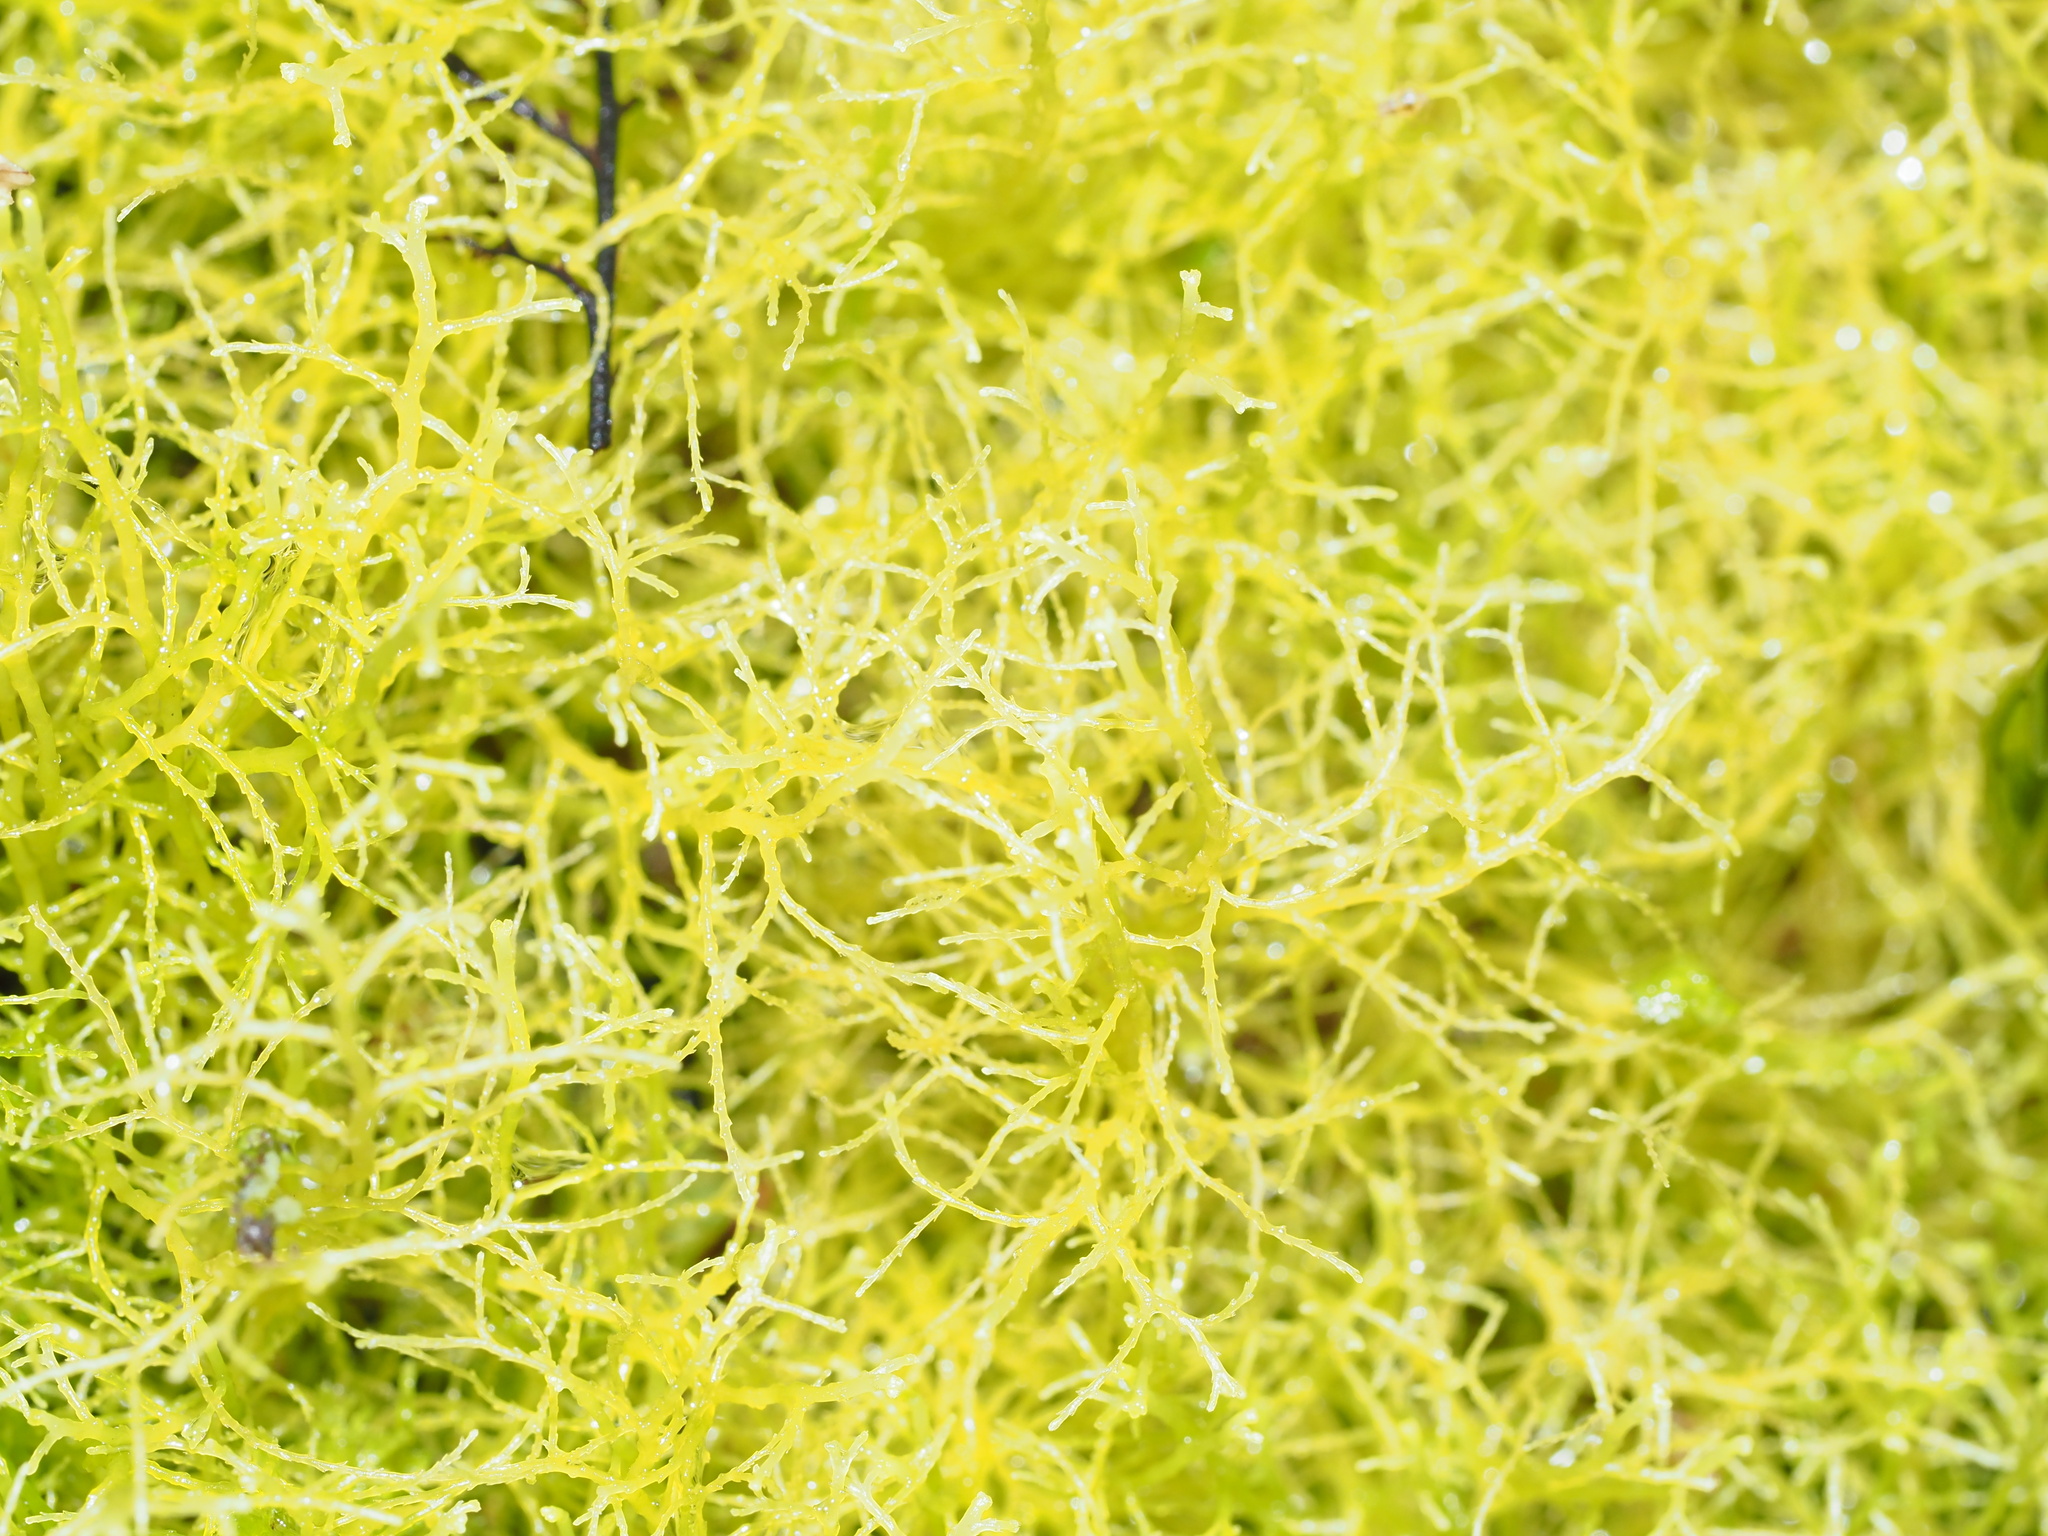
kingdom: Plantae
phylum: Marchantiophyta
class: Jungermanniopsida
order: Jungermanniales
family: Lepidoziaceae
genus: Lepidozia
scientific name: Lepidozia sandvicensis
